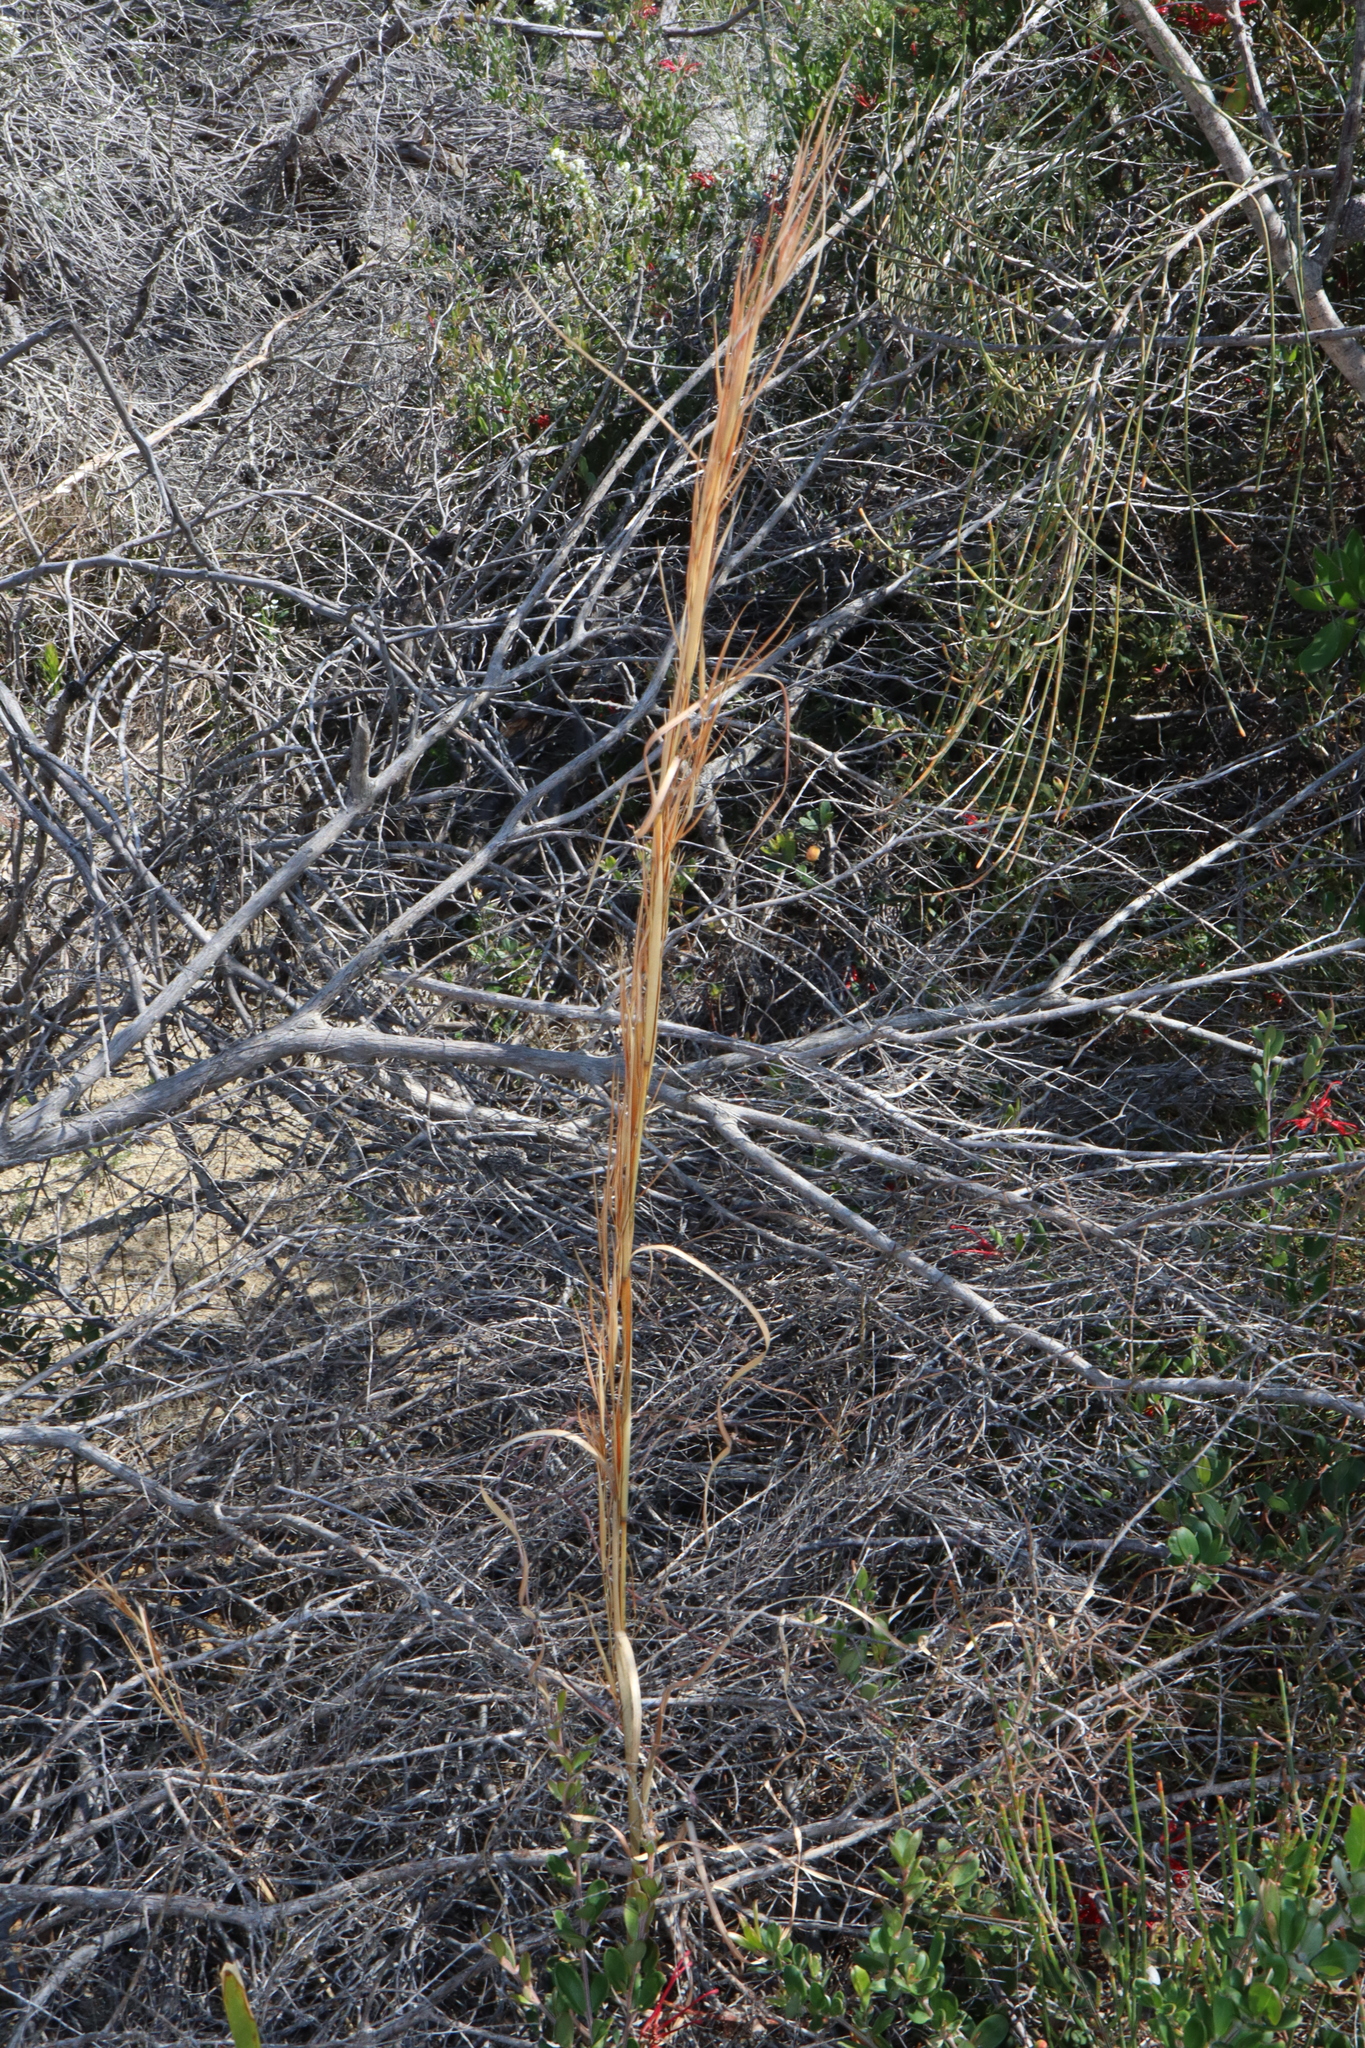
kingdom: Plantae
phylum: Tracheophyta
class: Liliopsida
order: Poales
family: Poaceae
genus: Andropogon
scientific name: Andropogon virginicus
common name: Broomsedge bluestem
